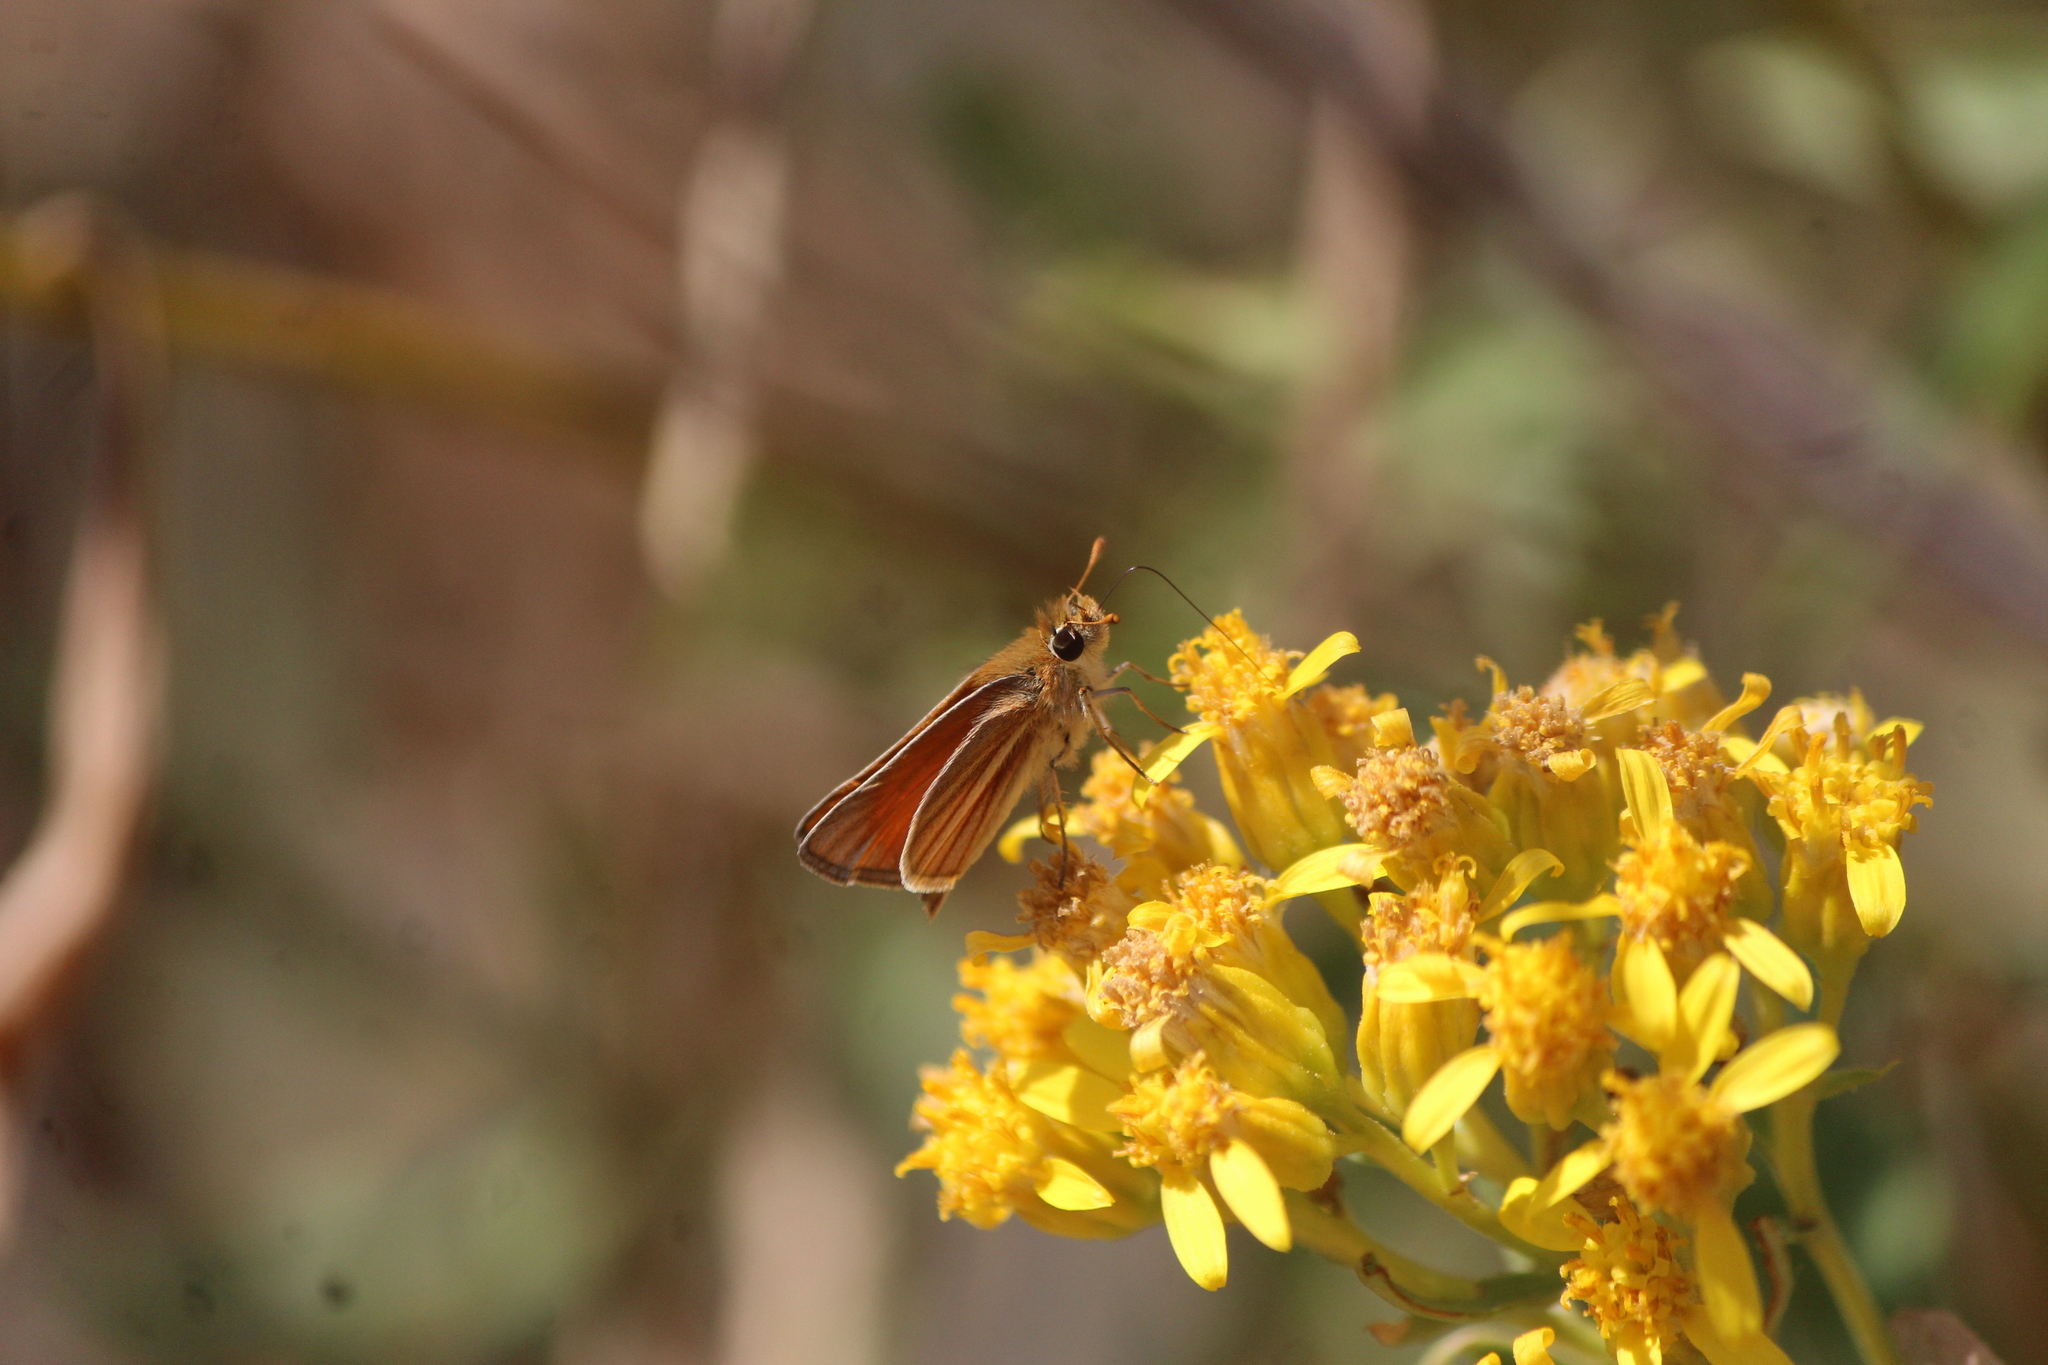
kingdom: Animalia
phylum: Arthropoda
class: Insecta
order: Lepidoptera
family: Hesperiidae
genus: Copaeodes
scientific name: Copaeodes minima
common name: Southern skipperling
